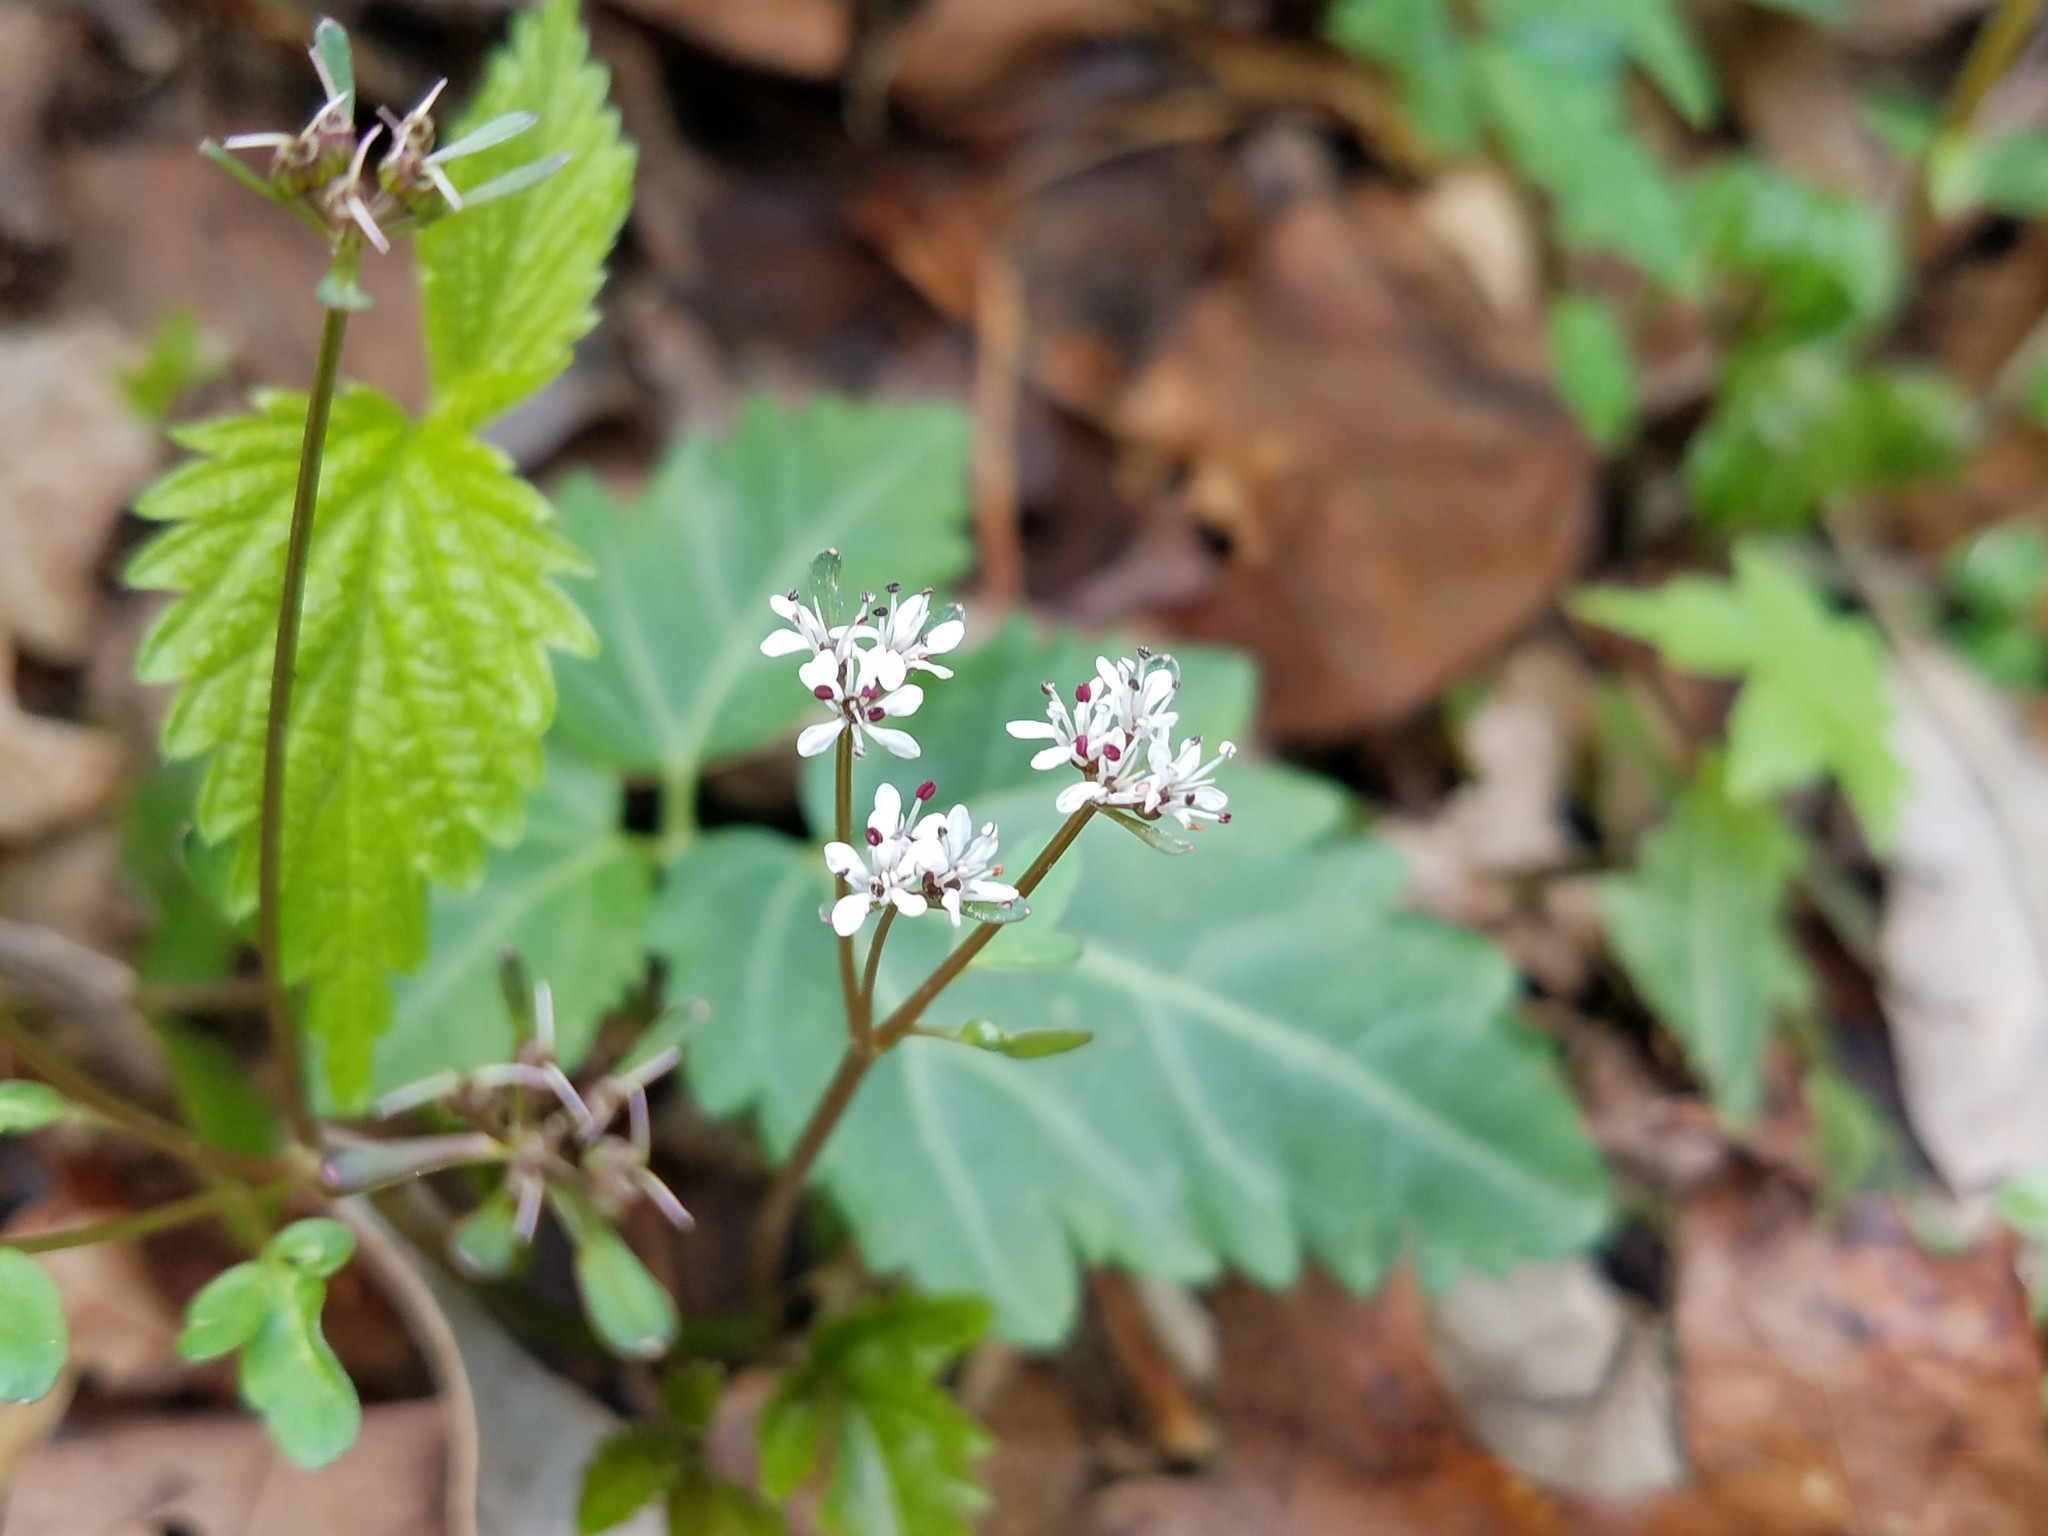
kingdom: Plantae
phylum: Tracheophyta
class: Magnoliopsida
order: Apiales
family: Apiaceae
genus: Erigenia
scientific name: Erigenia bulbosa
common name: Pepper-and-salt
